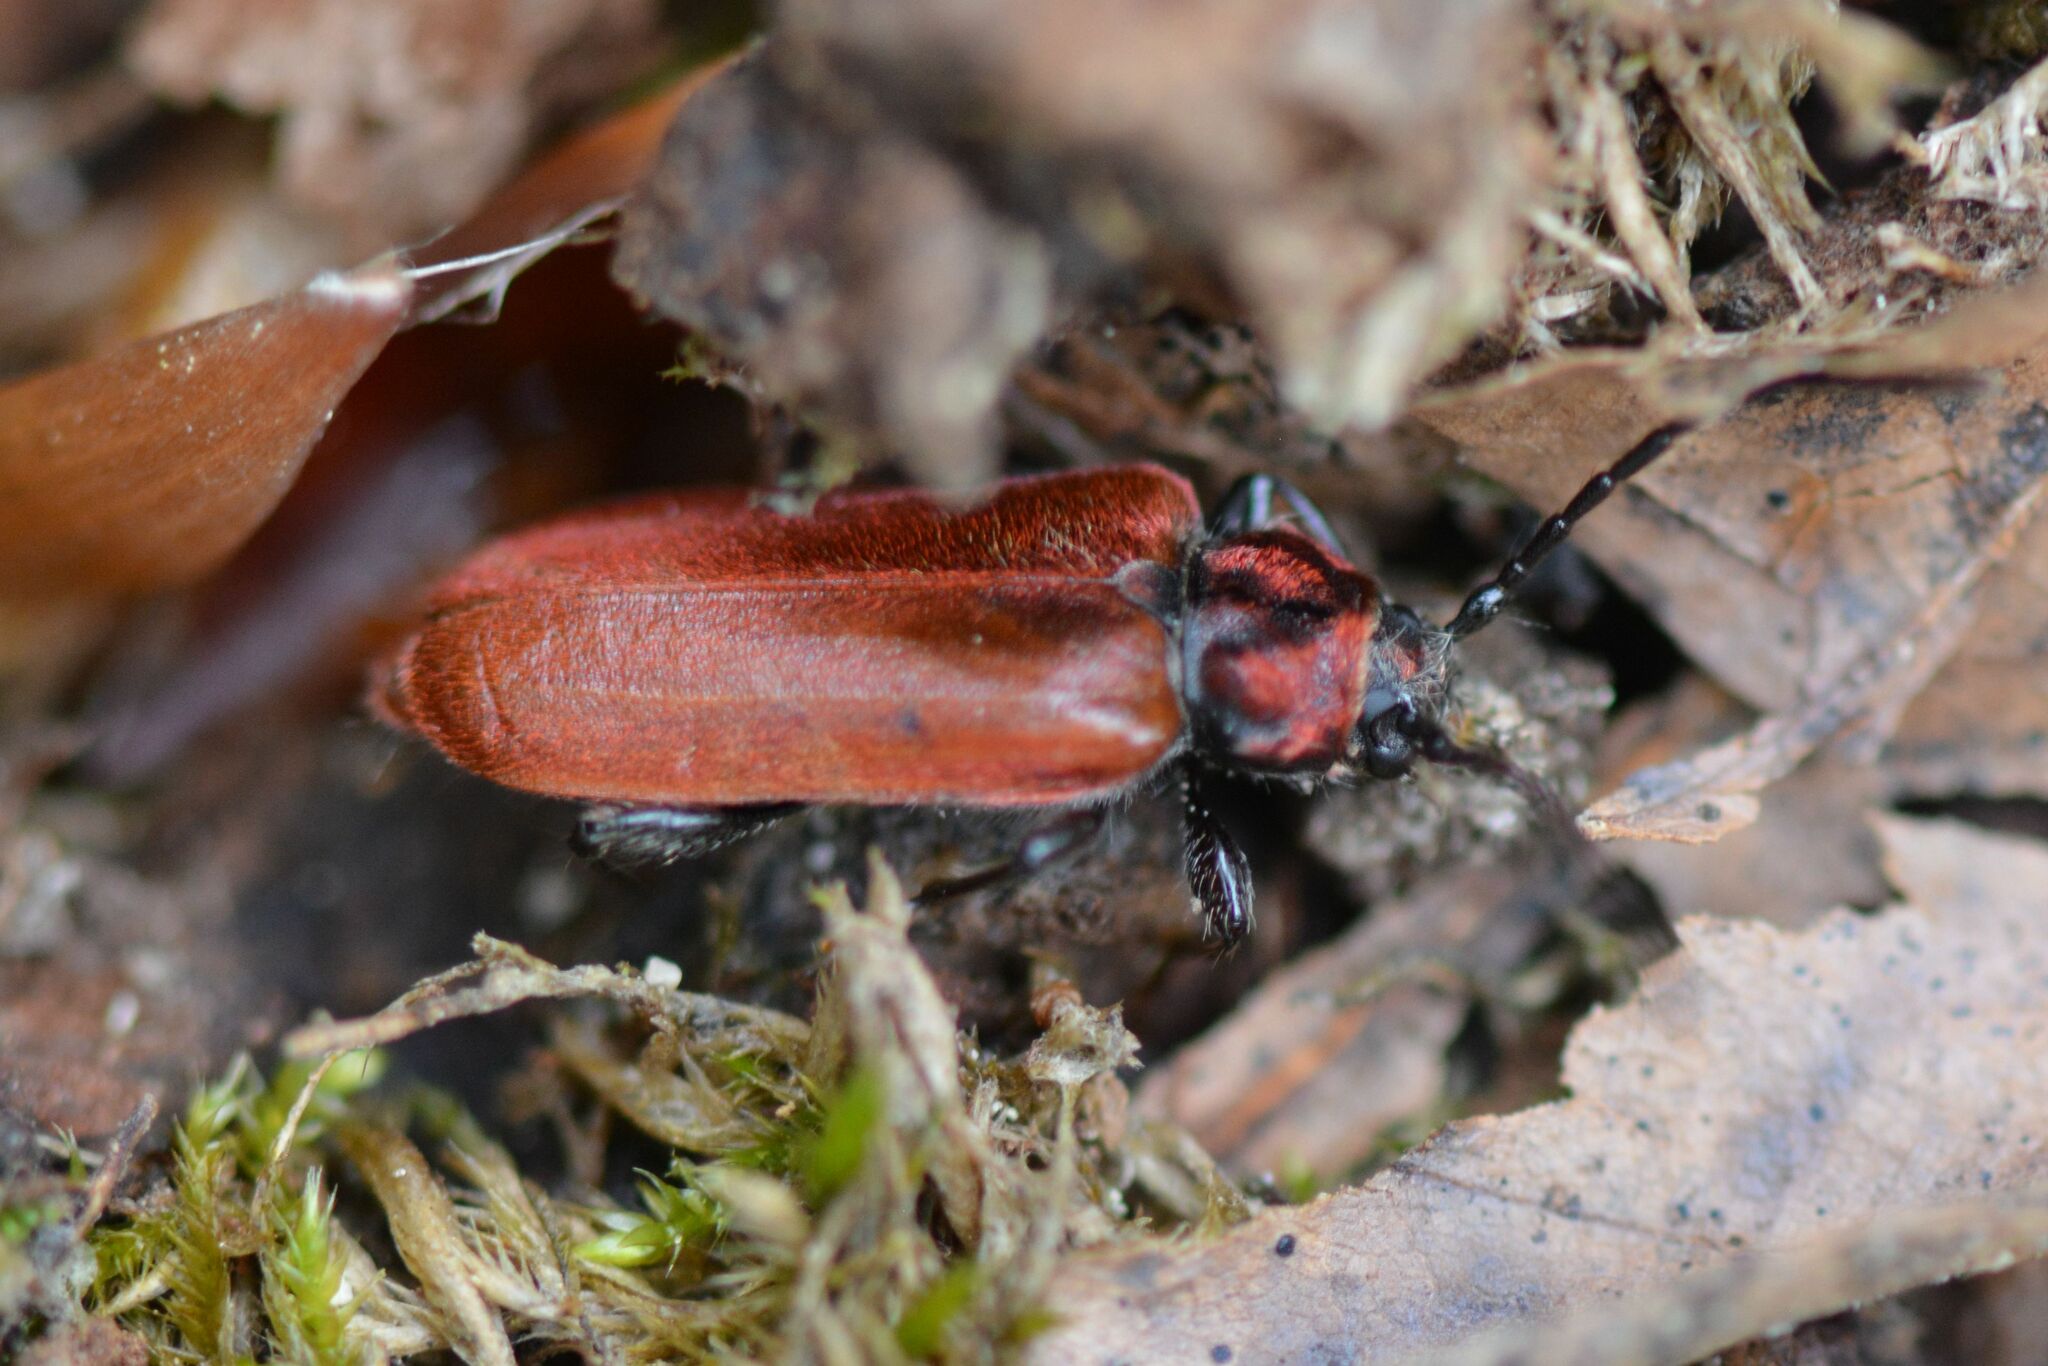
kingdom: Animalia
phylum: Arthropoda
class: Insecta
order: Coleoptera
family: Cerambycidae
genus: Pyrrhidium
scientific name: Pyrrhidium sanguineum
